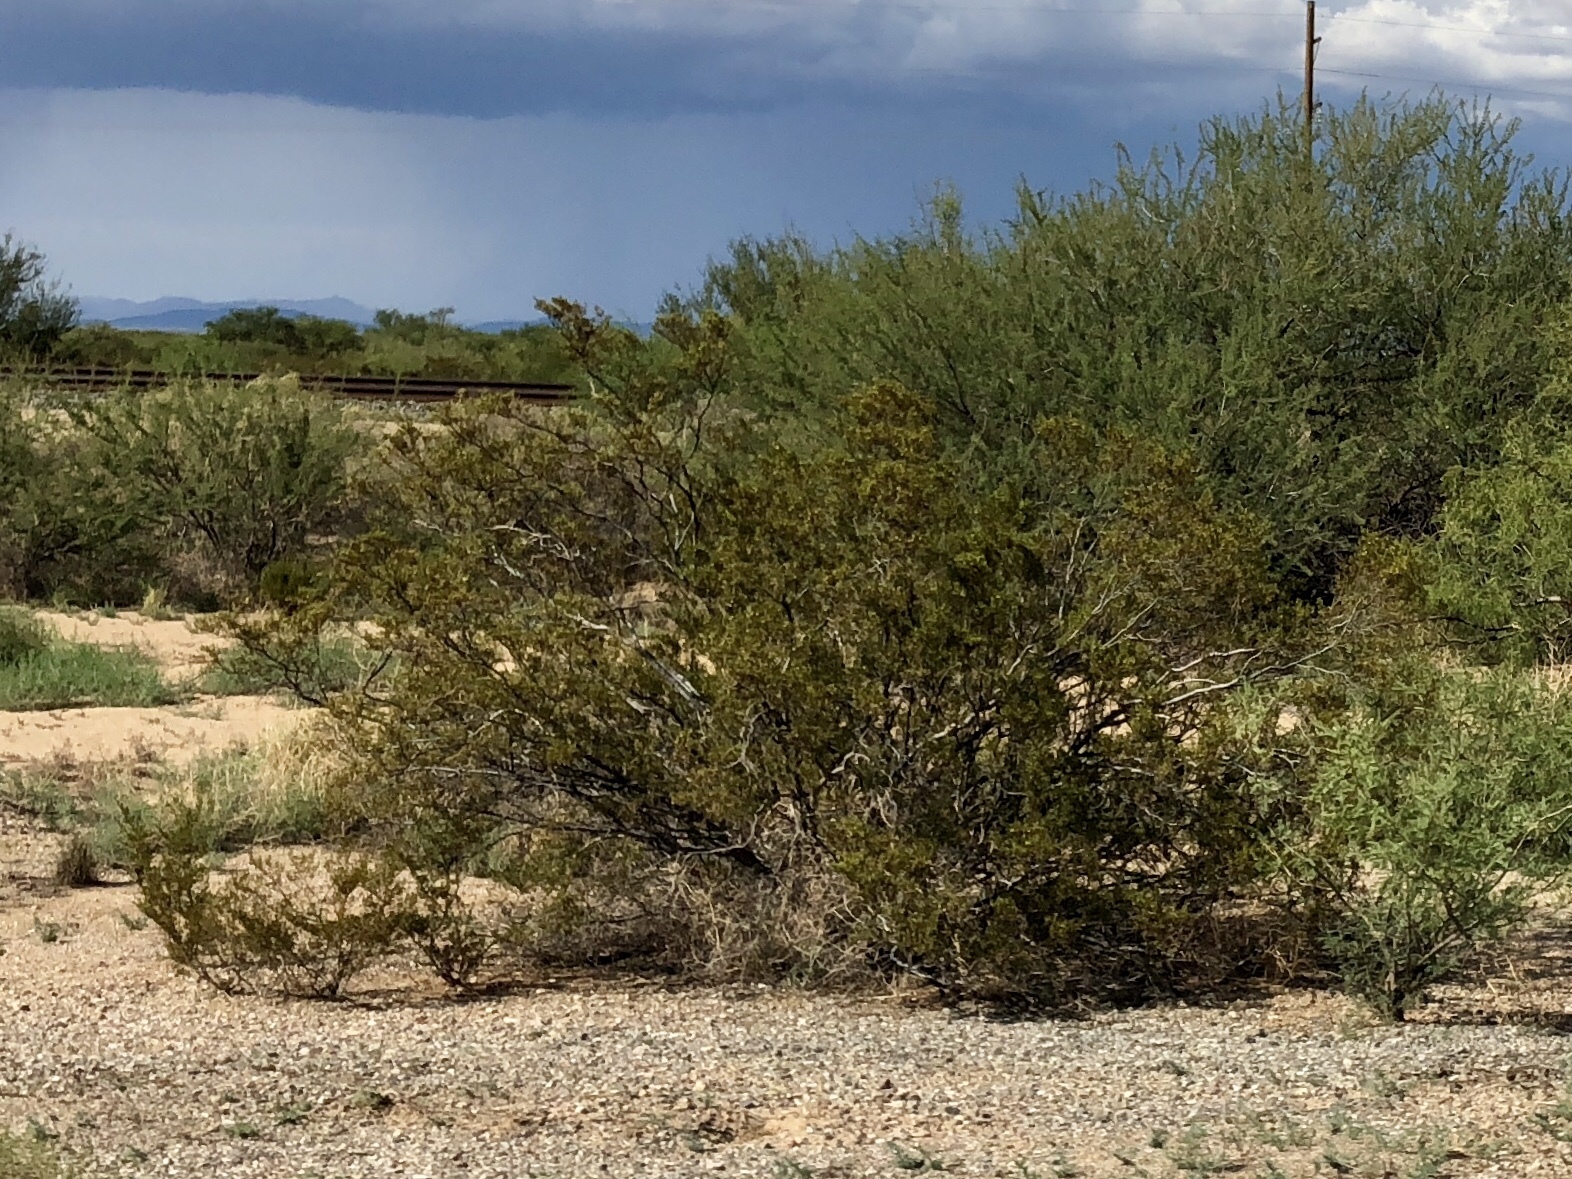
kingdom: Plantae
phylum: Tracheophyta
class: Magnoliopsida
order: Zygophyllales
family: Zygophyllaceae
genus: Larrea
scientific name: Larrea tridentata
